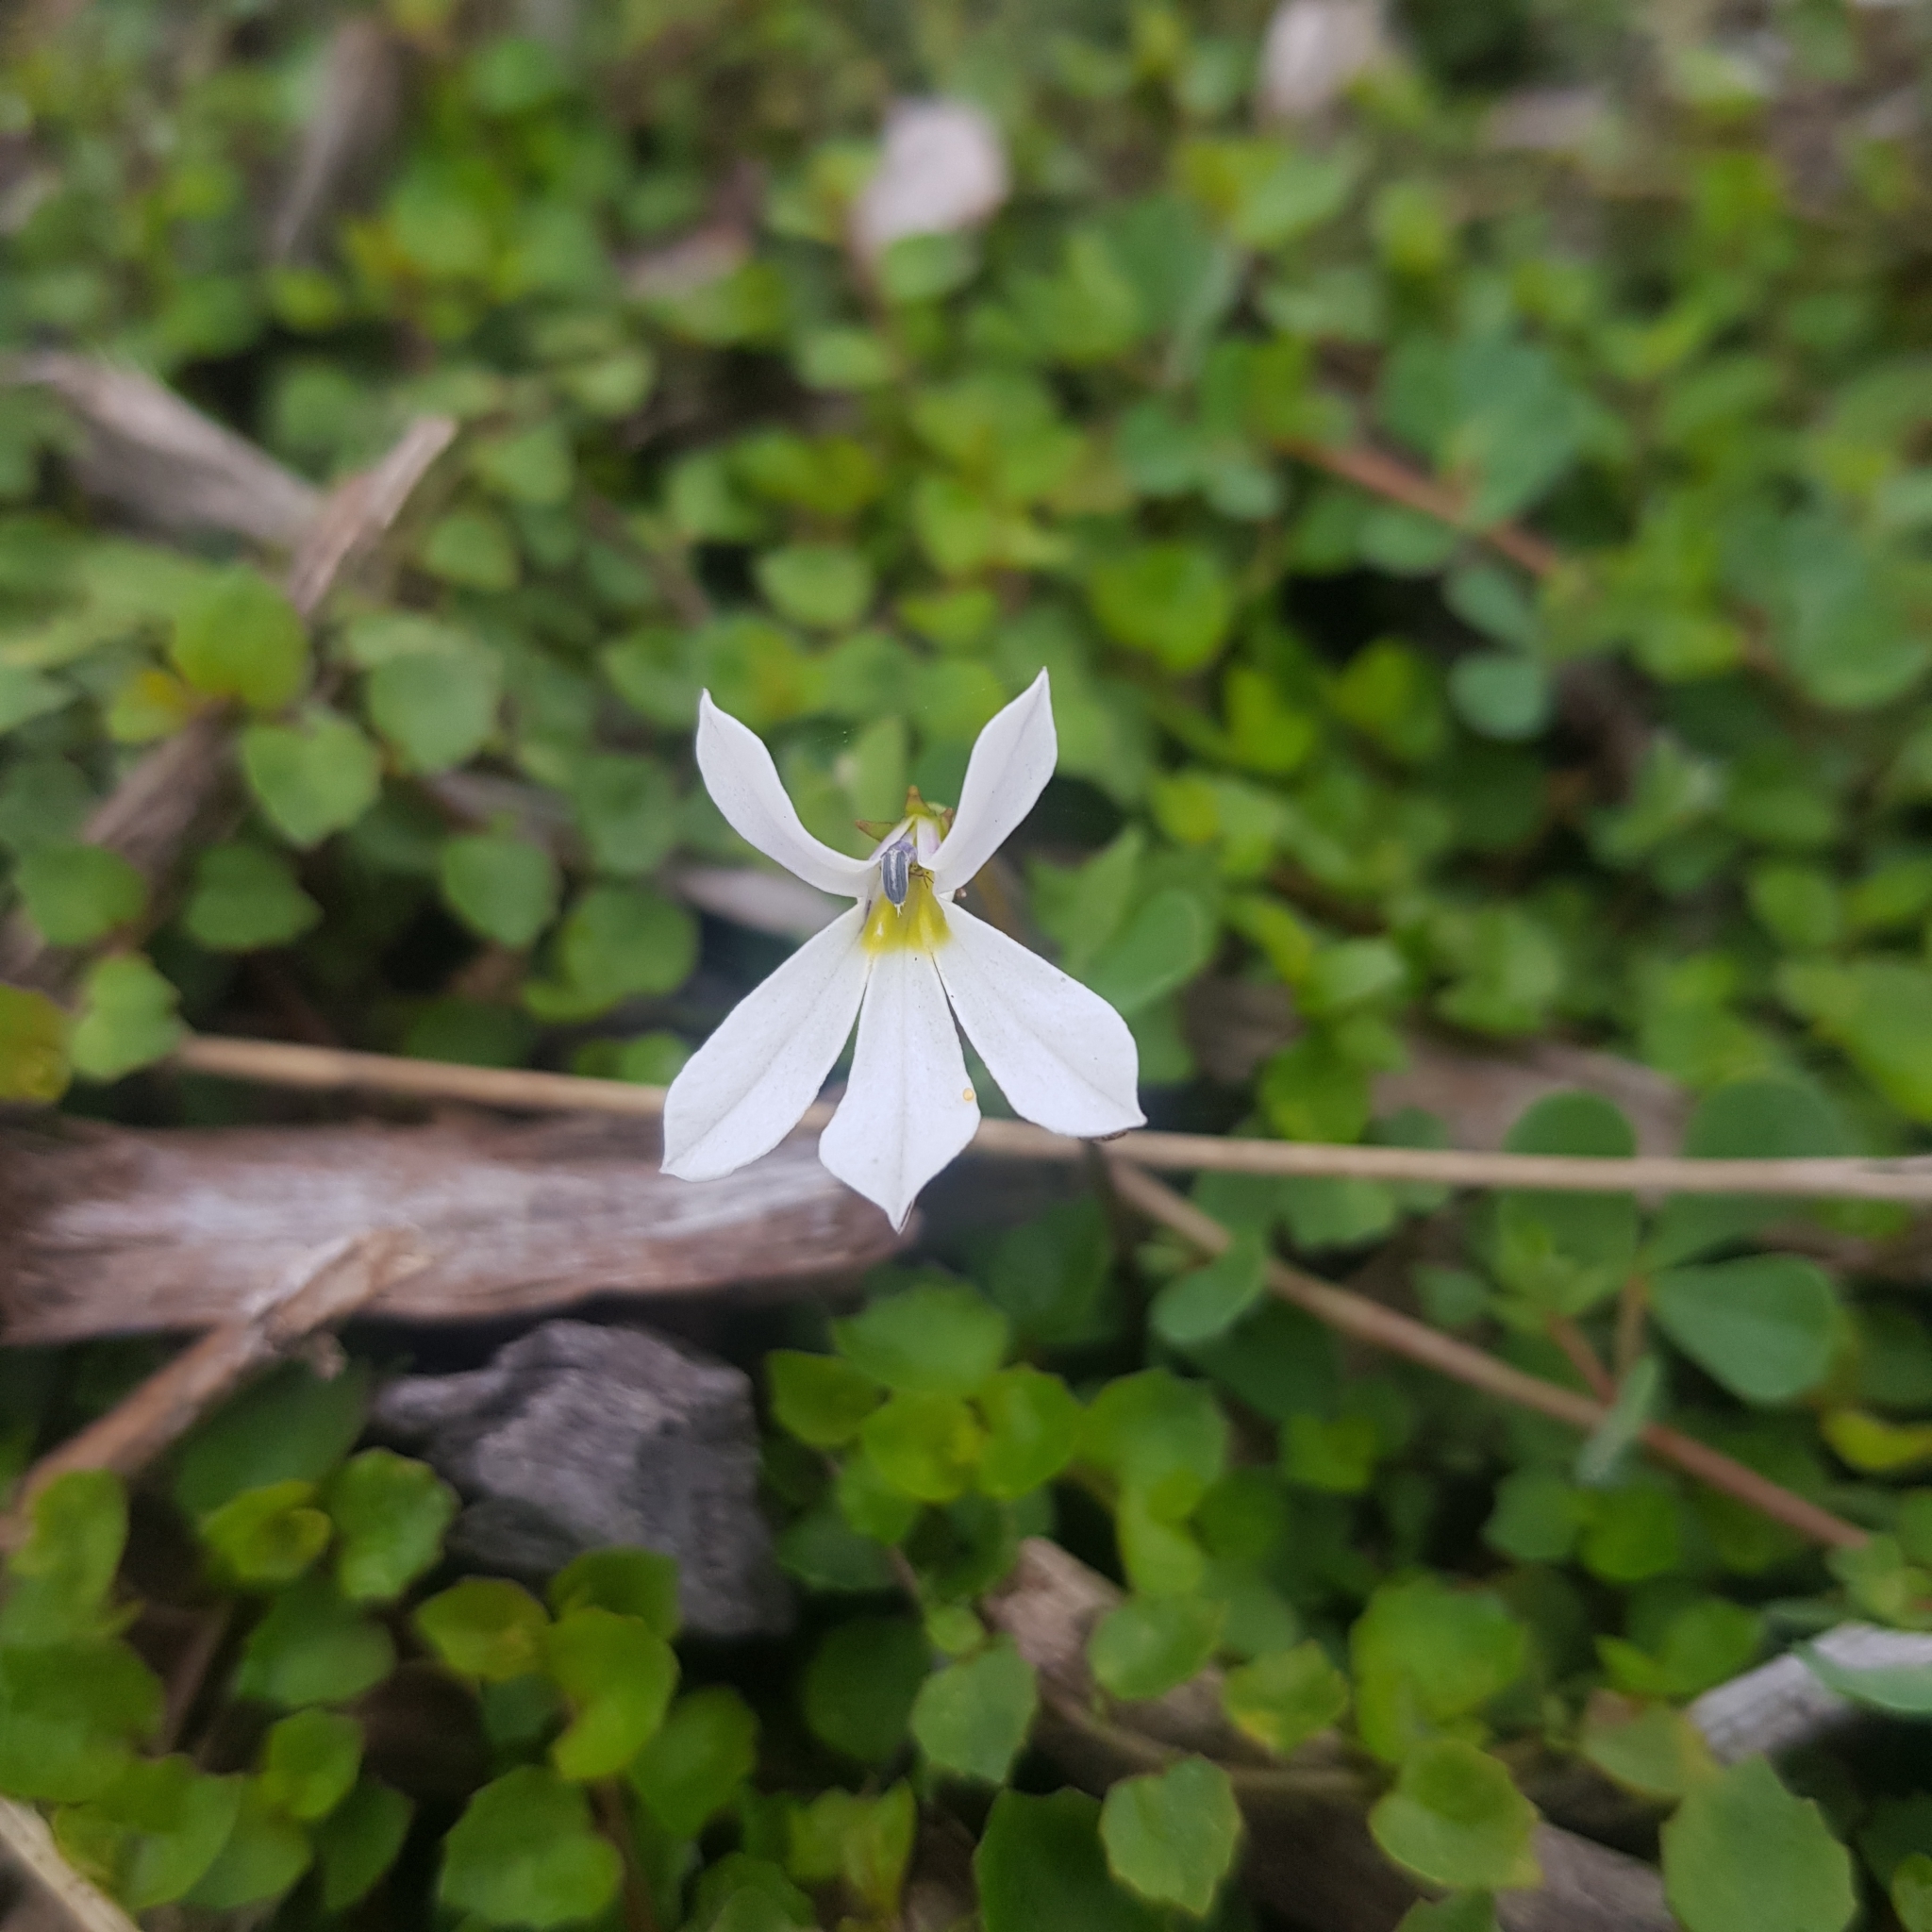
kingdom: Plantae
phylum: Tracheophyta
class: Magnoliopsida
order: Asterales
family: Campanulaceae
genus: Lobelia
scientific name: Lobelia angulata
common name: Lawn lobelia
